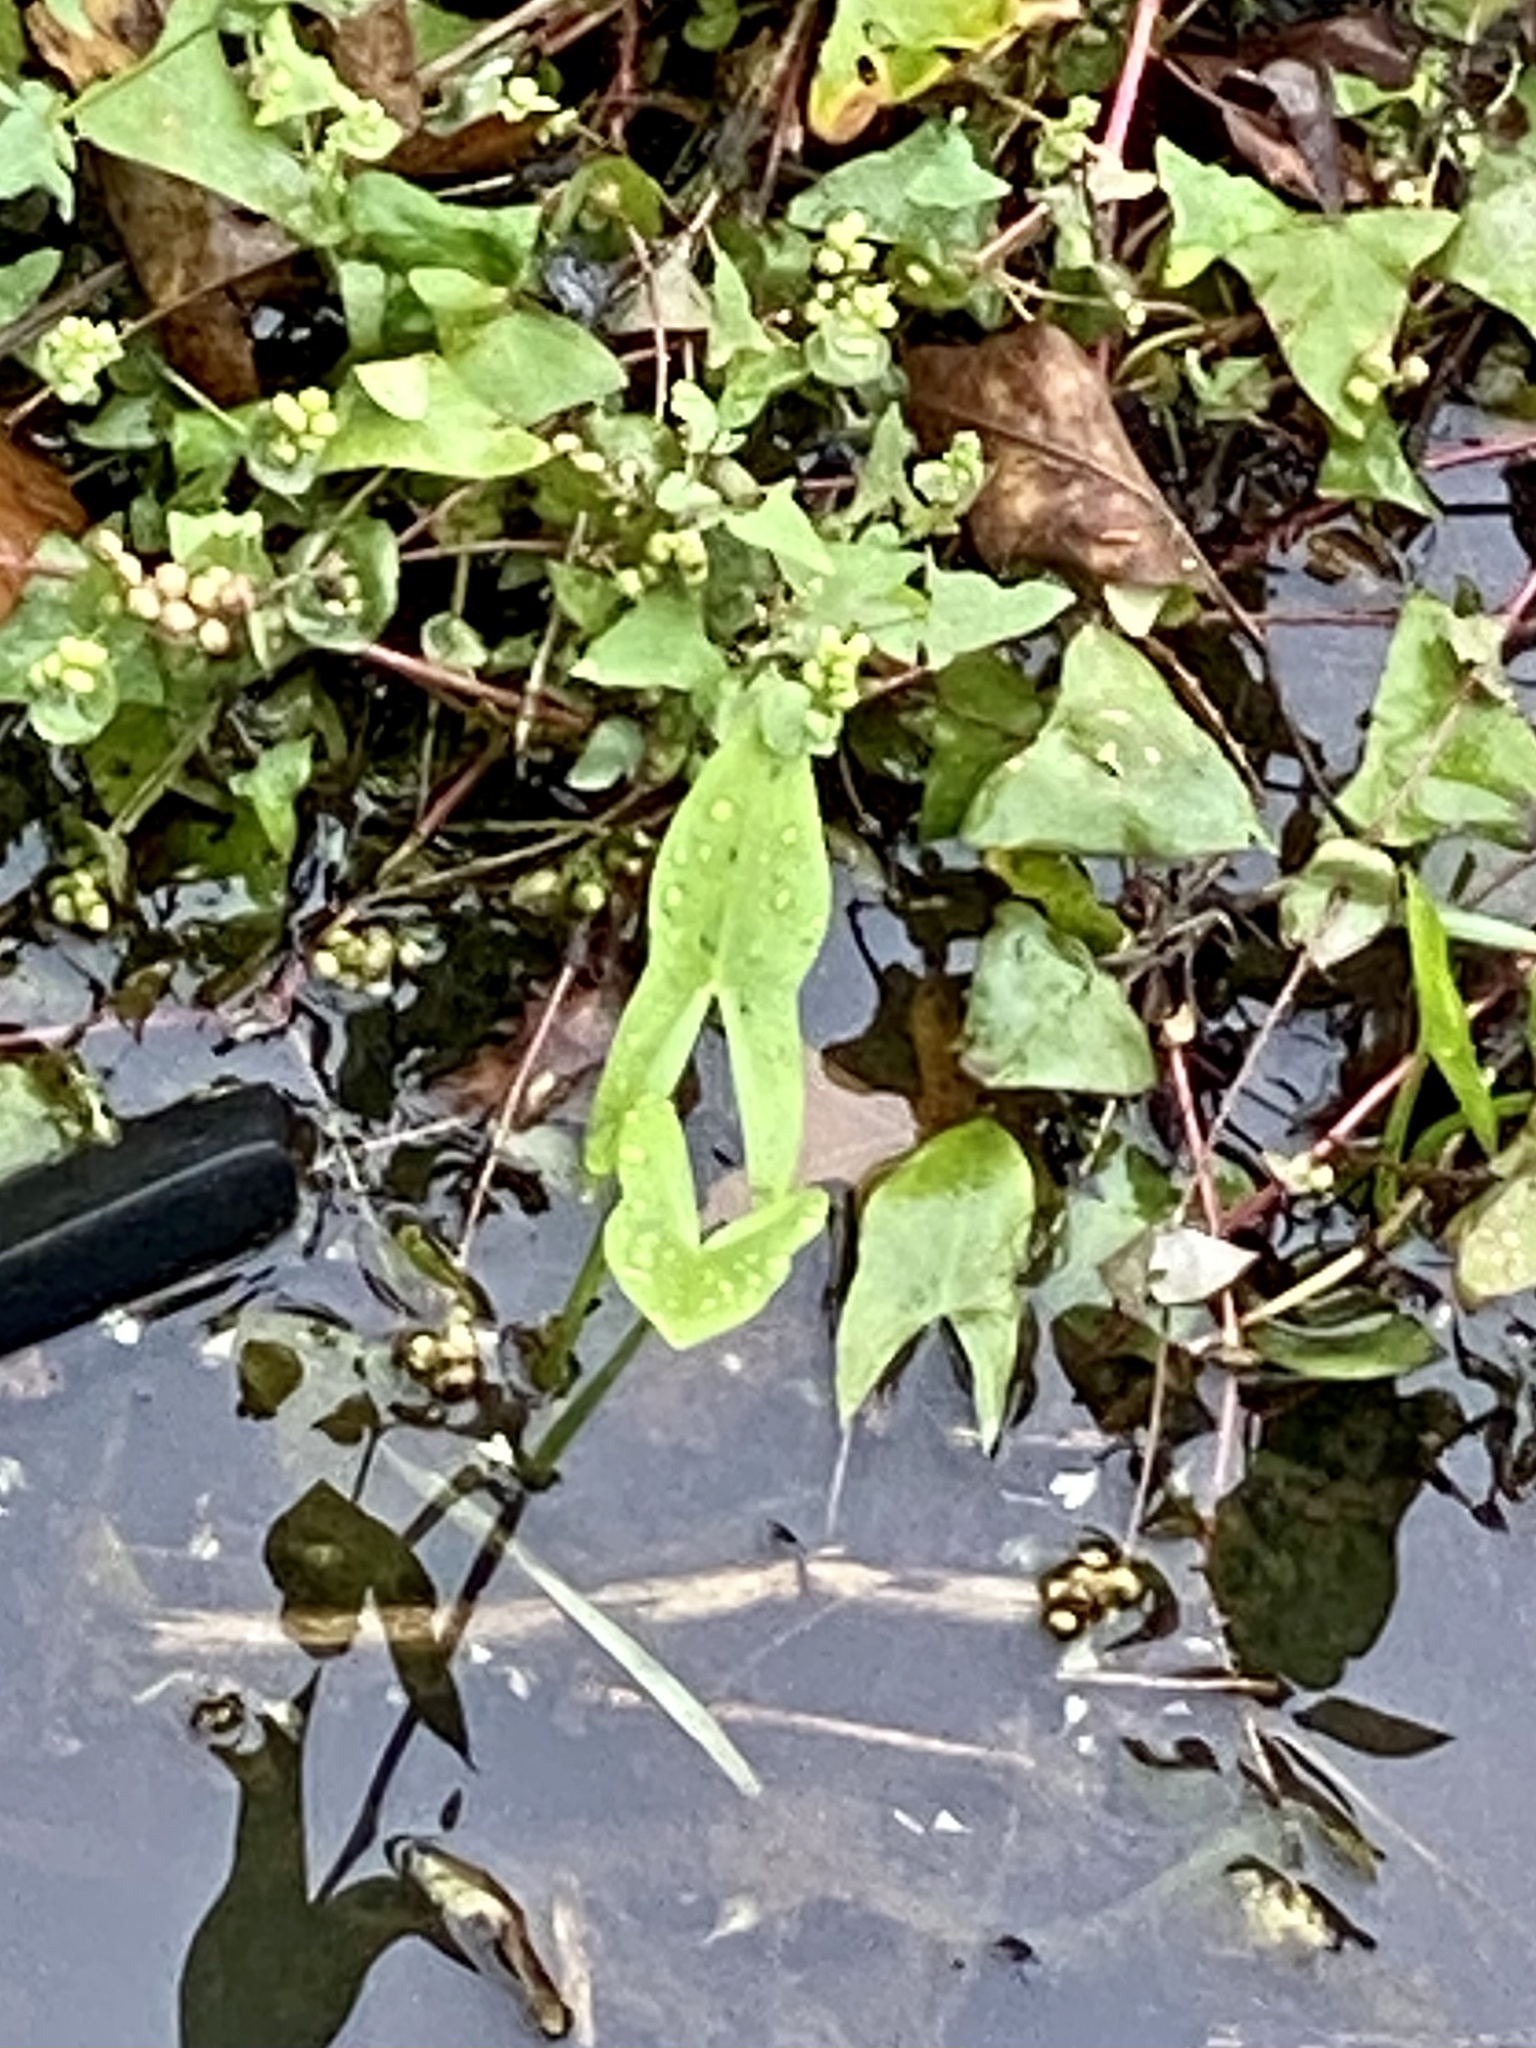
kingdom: Plantae
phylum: Tracheophyta
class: Liliopsida
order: Alismatales
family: Alismataceae
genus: Sagittaria
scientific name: Sagittaria latifolia
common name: Duck-potato
